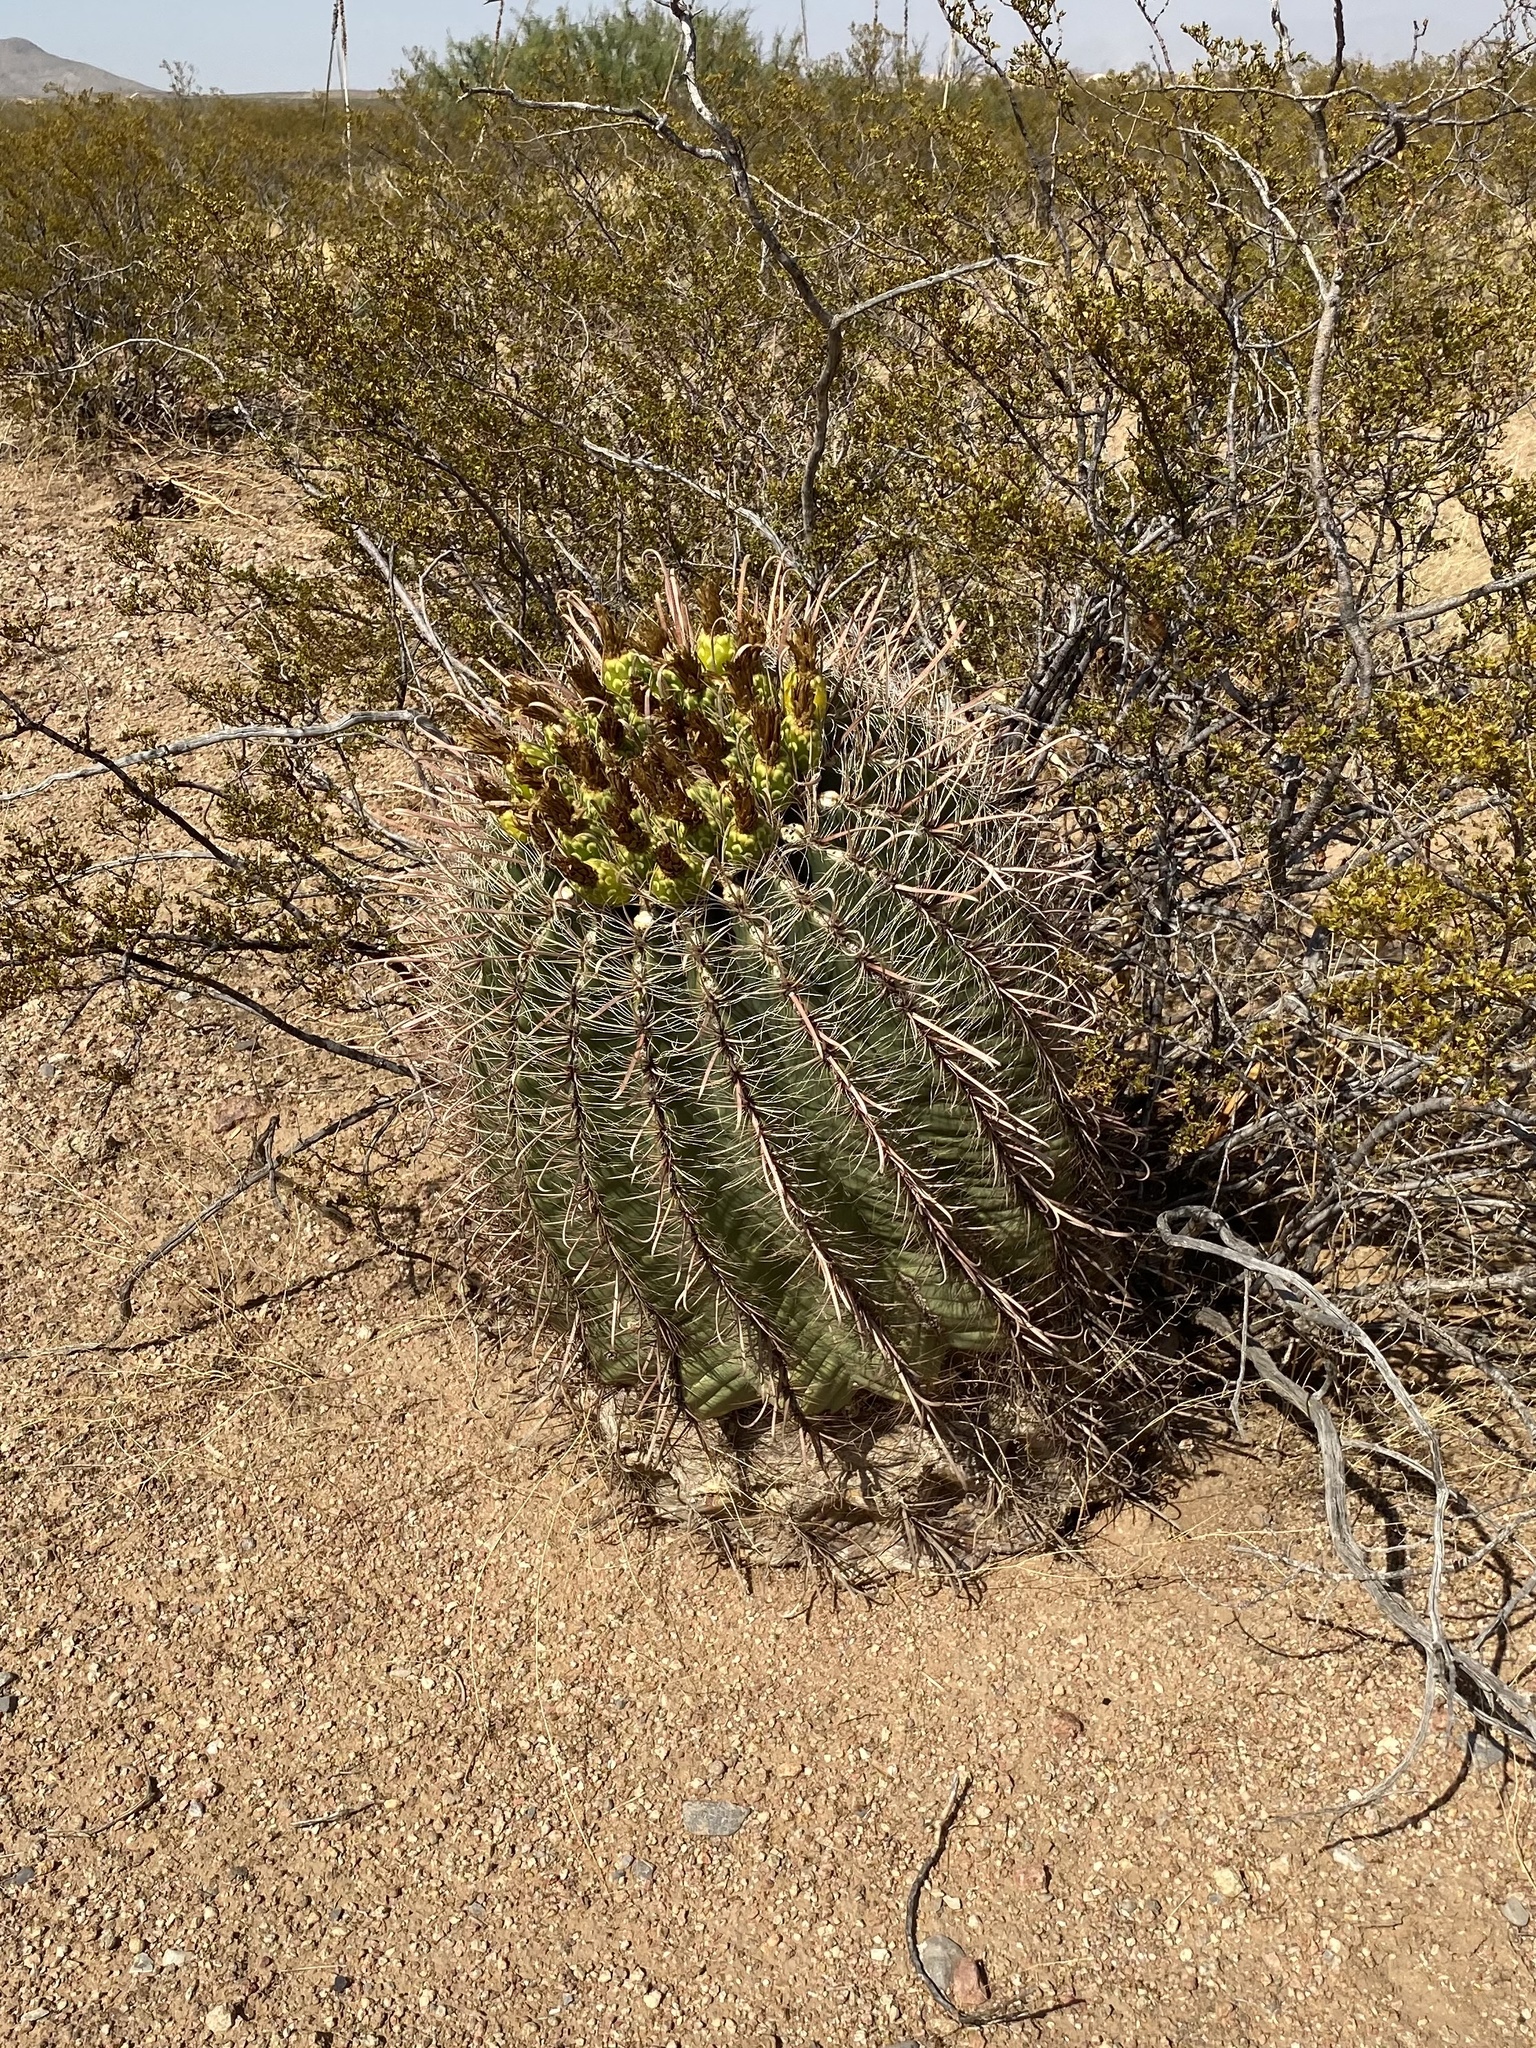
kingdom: Plantae
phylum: Tracheophyta
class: Magnoliopsida
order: Caryophyllales
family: Cactaceae
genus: Ferocactus
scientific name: Ferocactus wislizeni
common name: Candy barrel cactus
